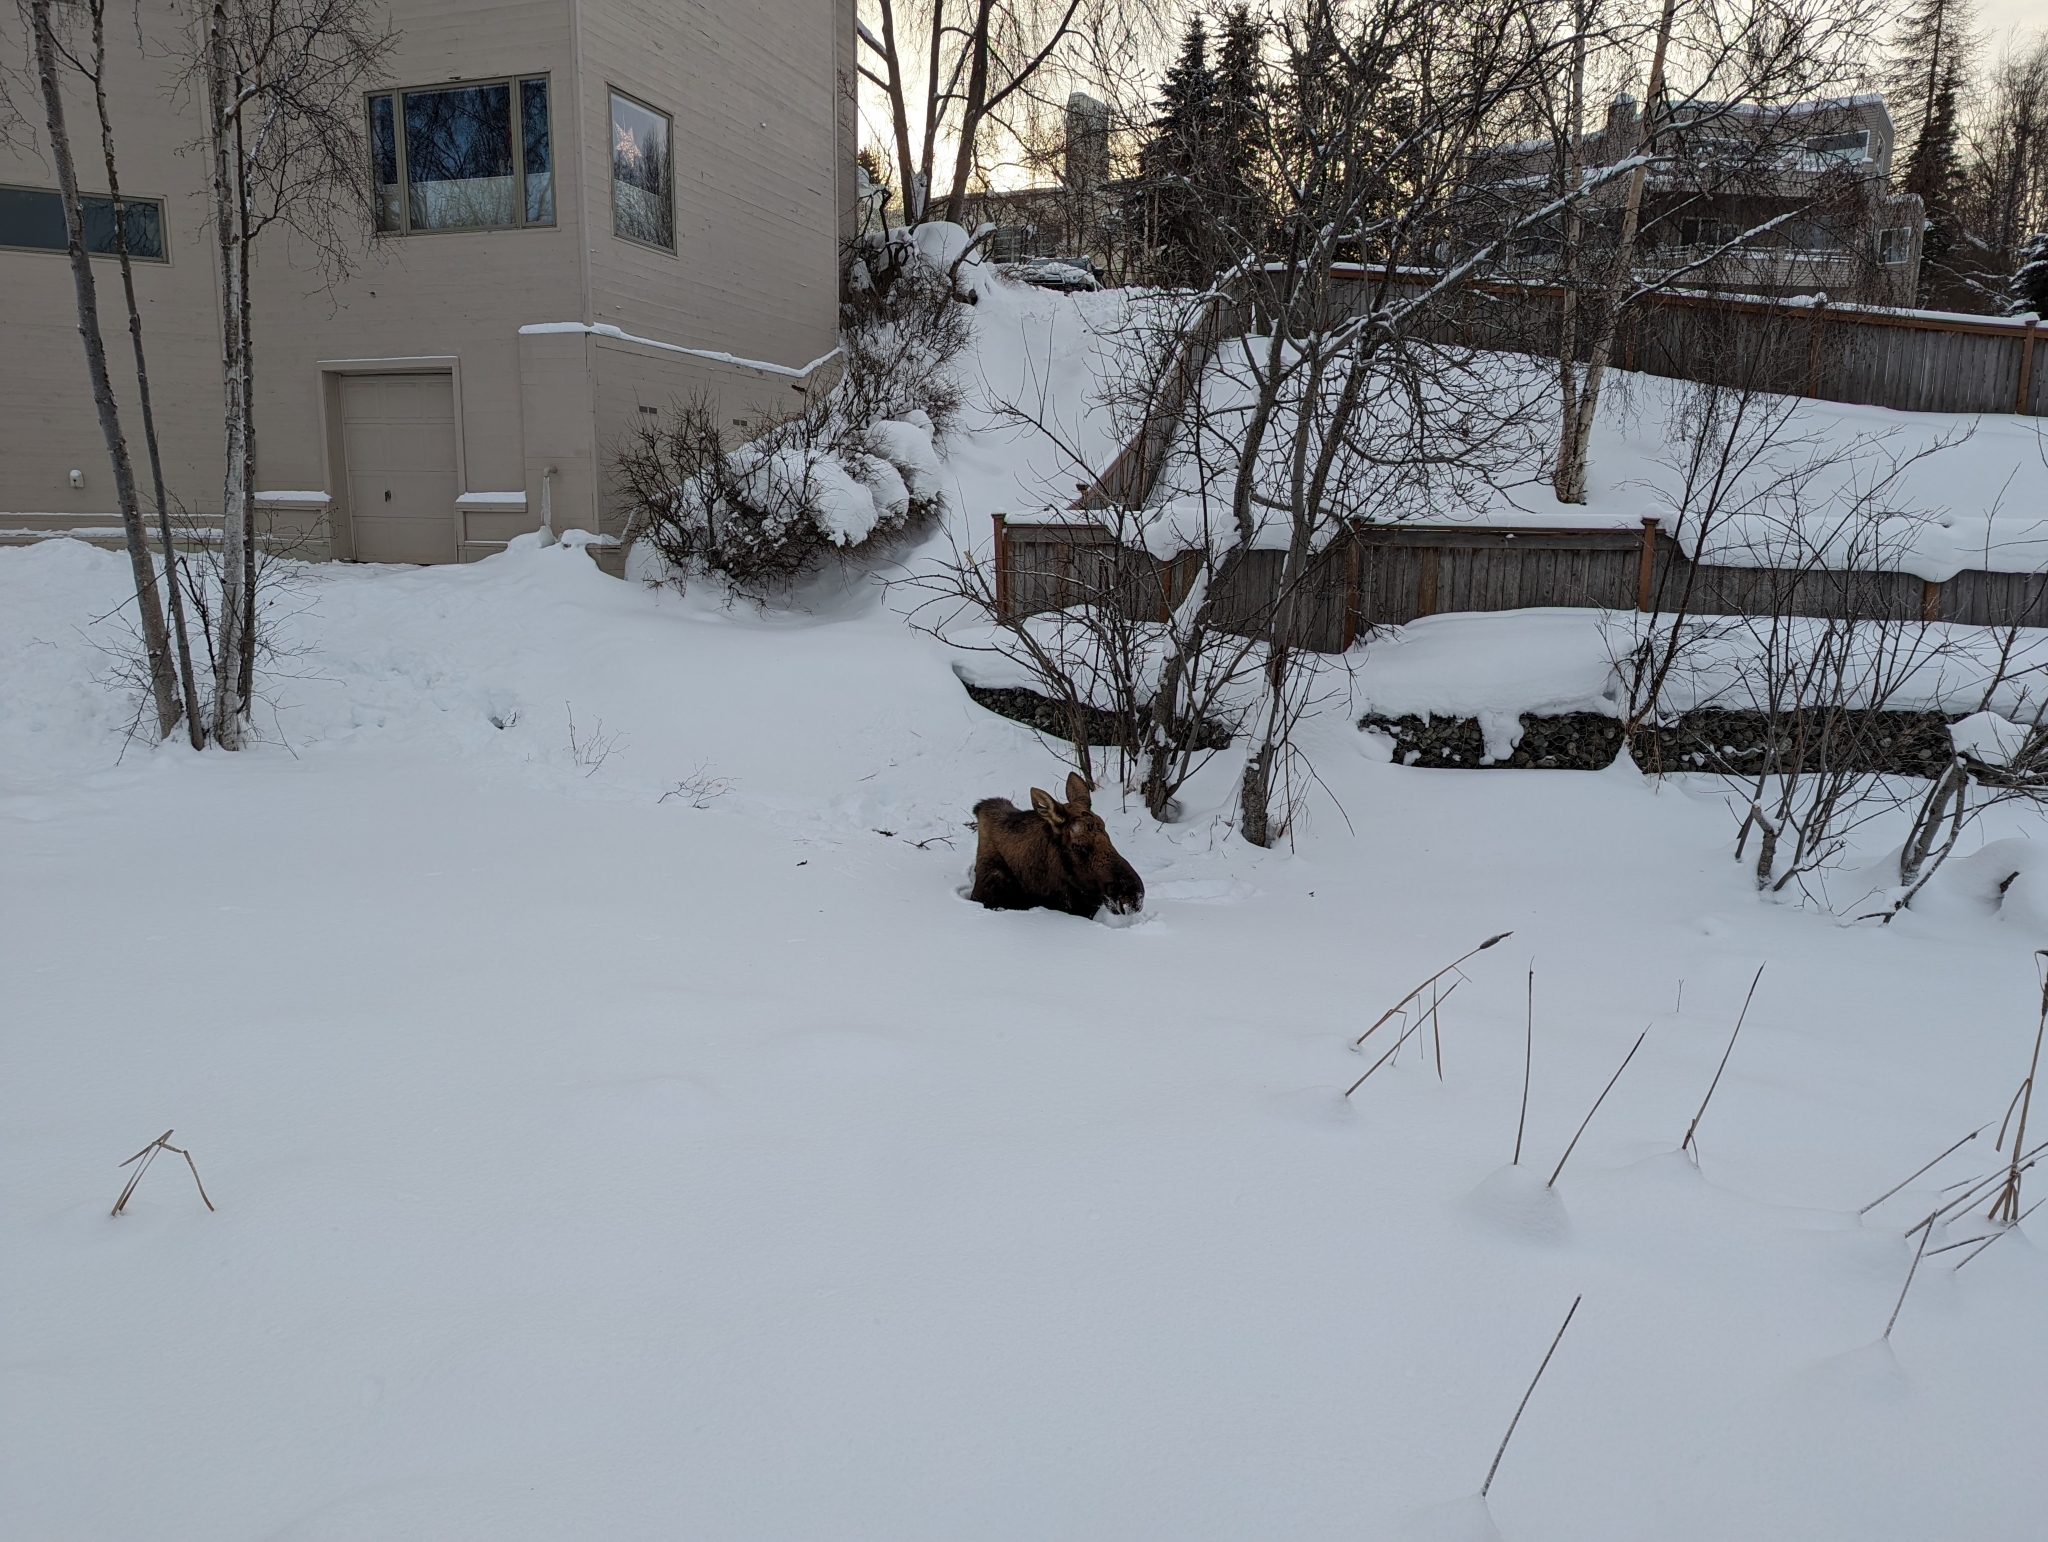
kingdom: Animalia
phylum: Chordata
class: Mammalia
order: Artiodactyla
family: Cervidae
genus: Alces
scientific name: Alces alces
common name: Moose
